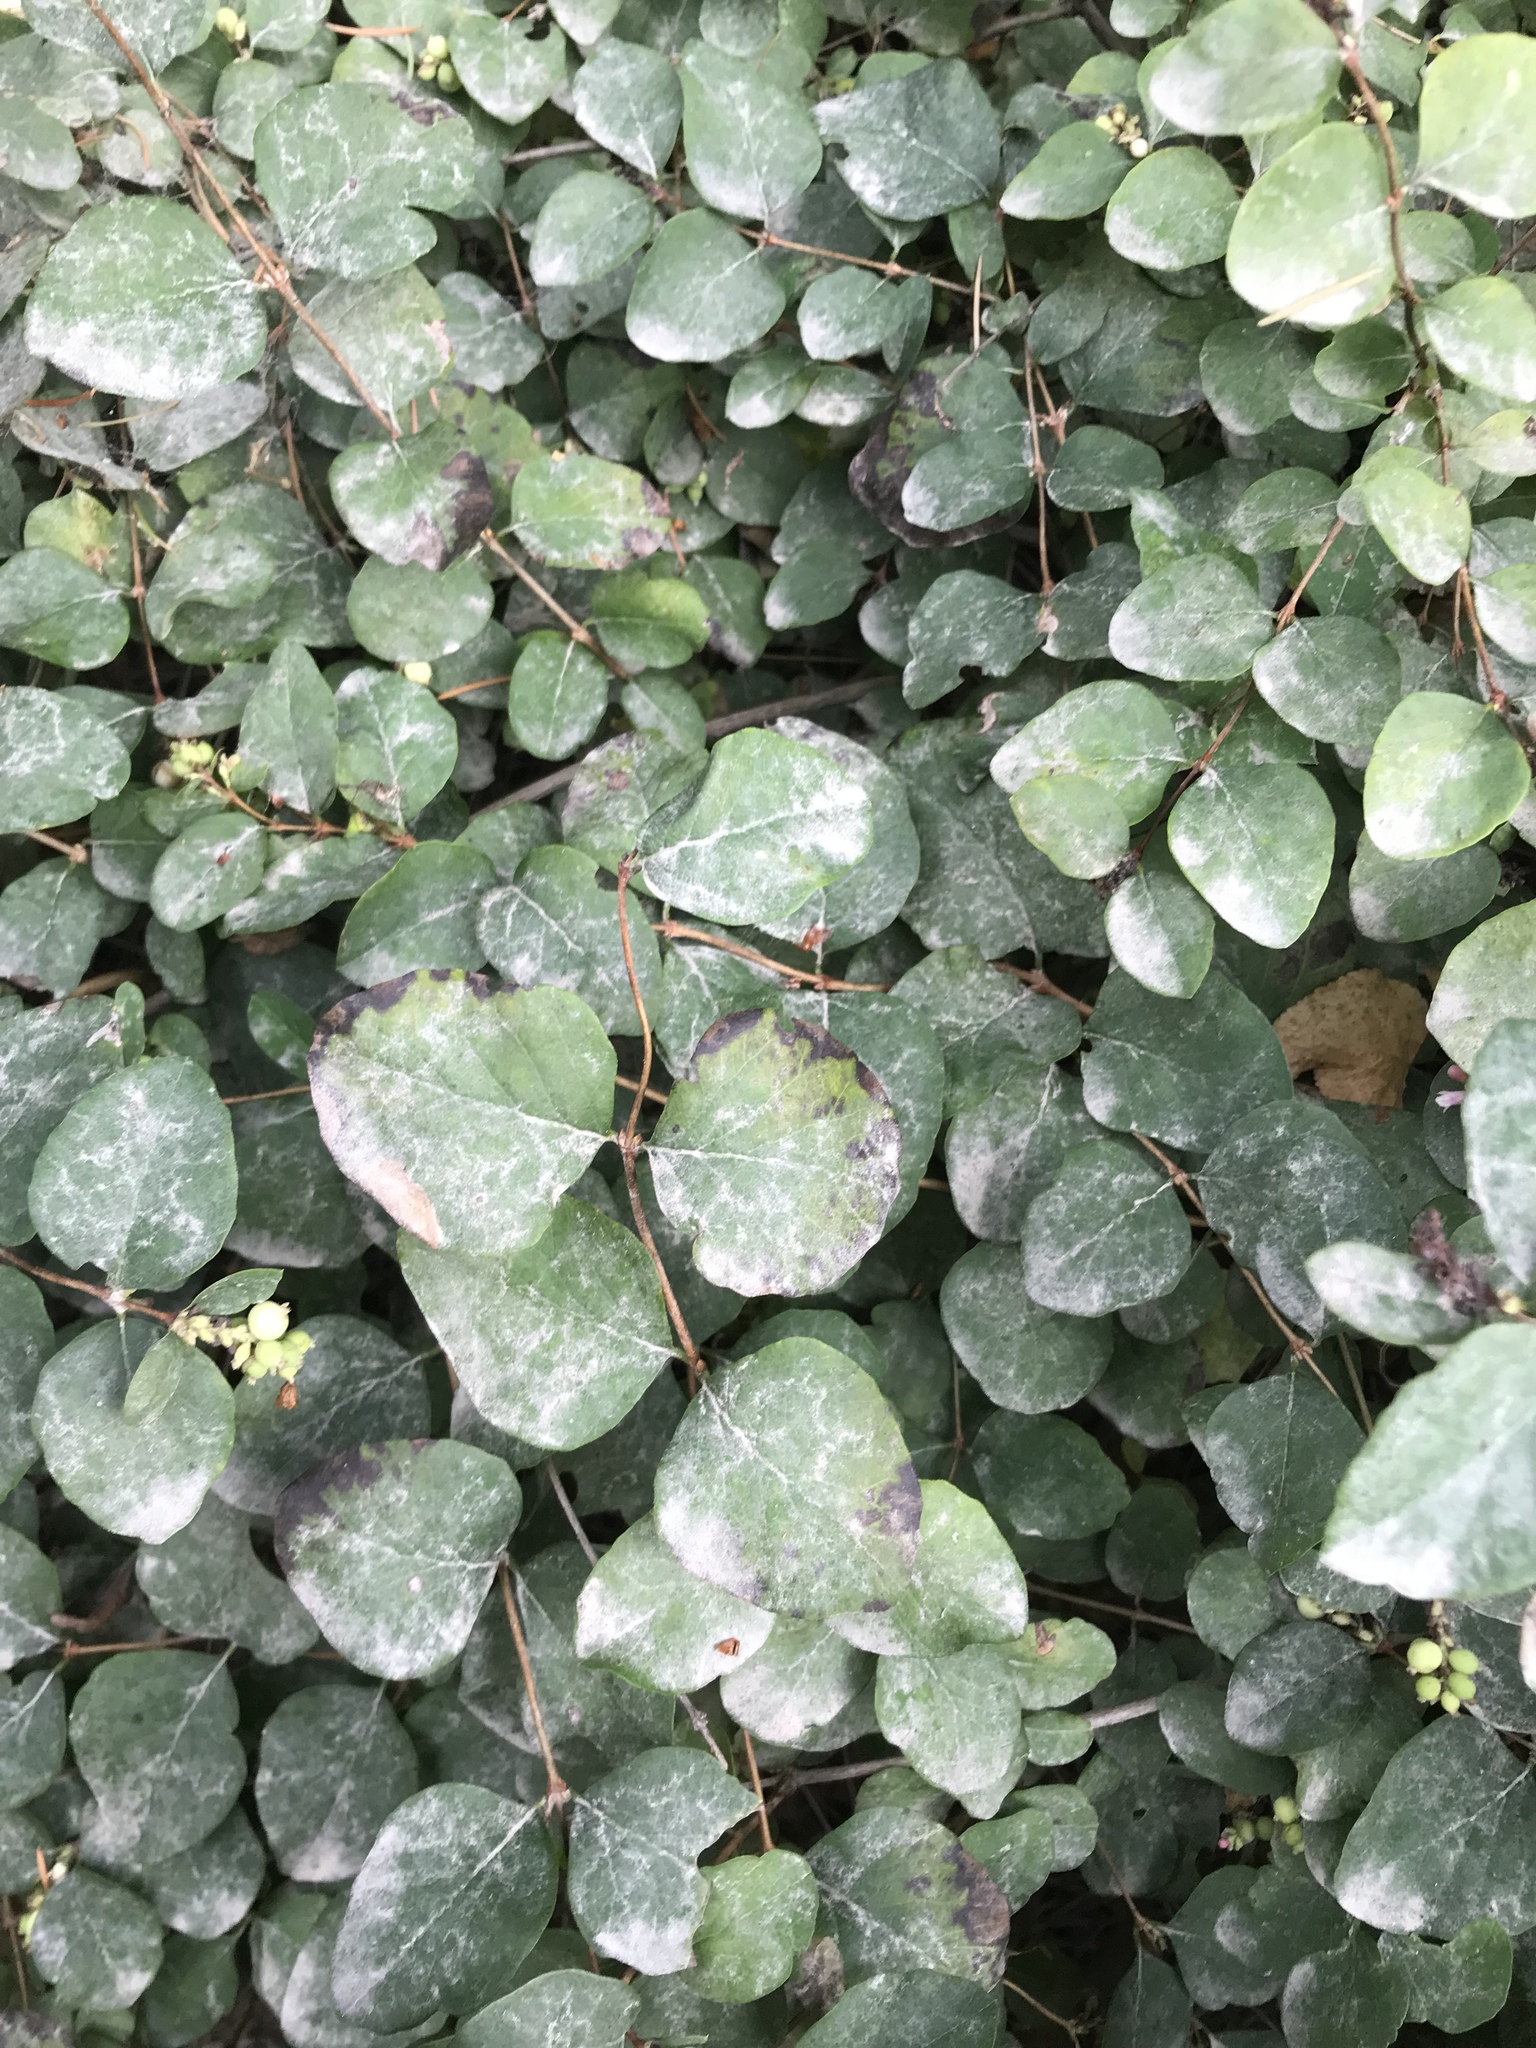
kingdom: Plantae
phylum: Tracheophyta
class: Magnoliopsida
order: Dipsacales
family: Caprifoliaceae
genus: Symphoricarpos
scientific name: Symphoricarpos albus
